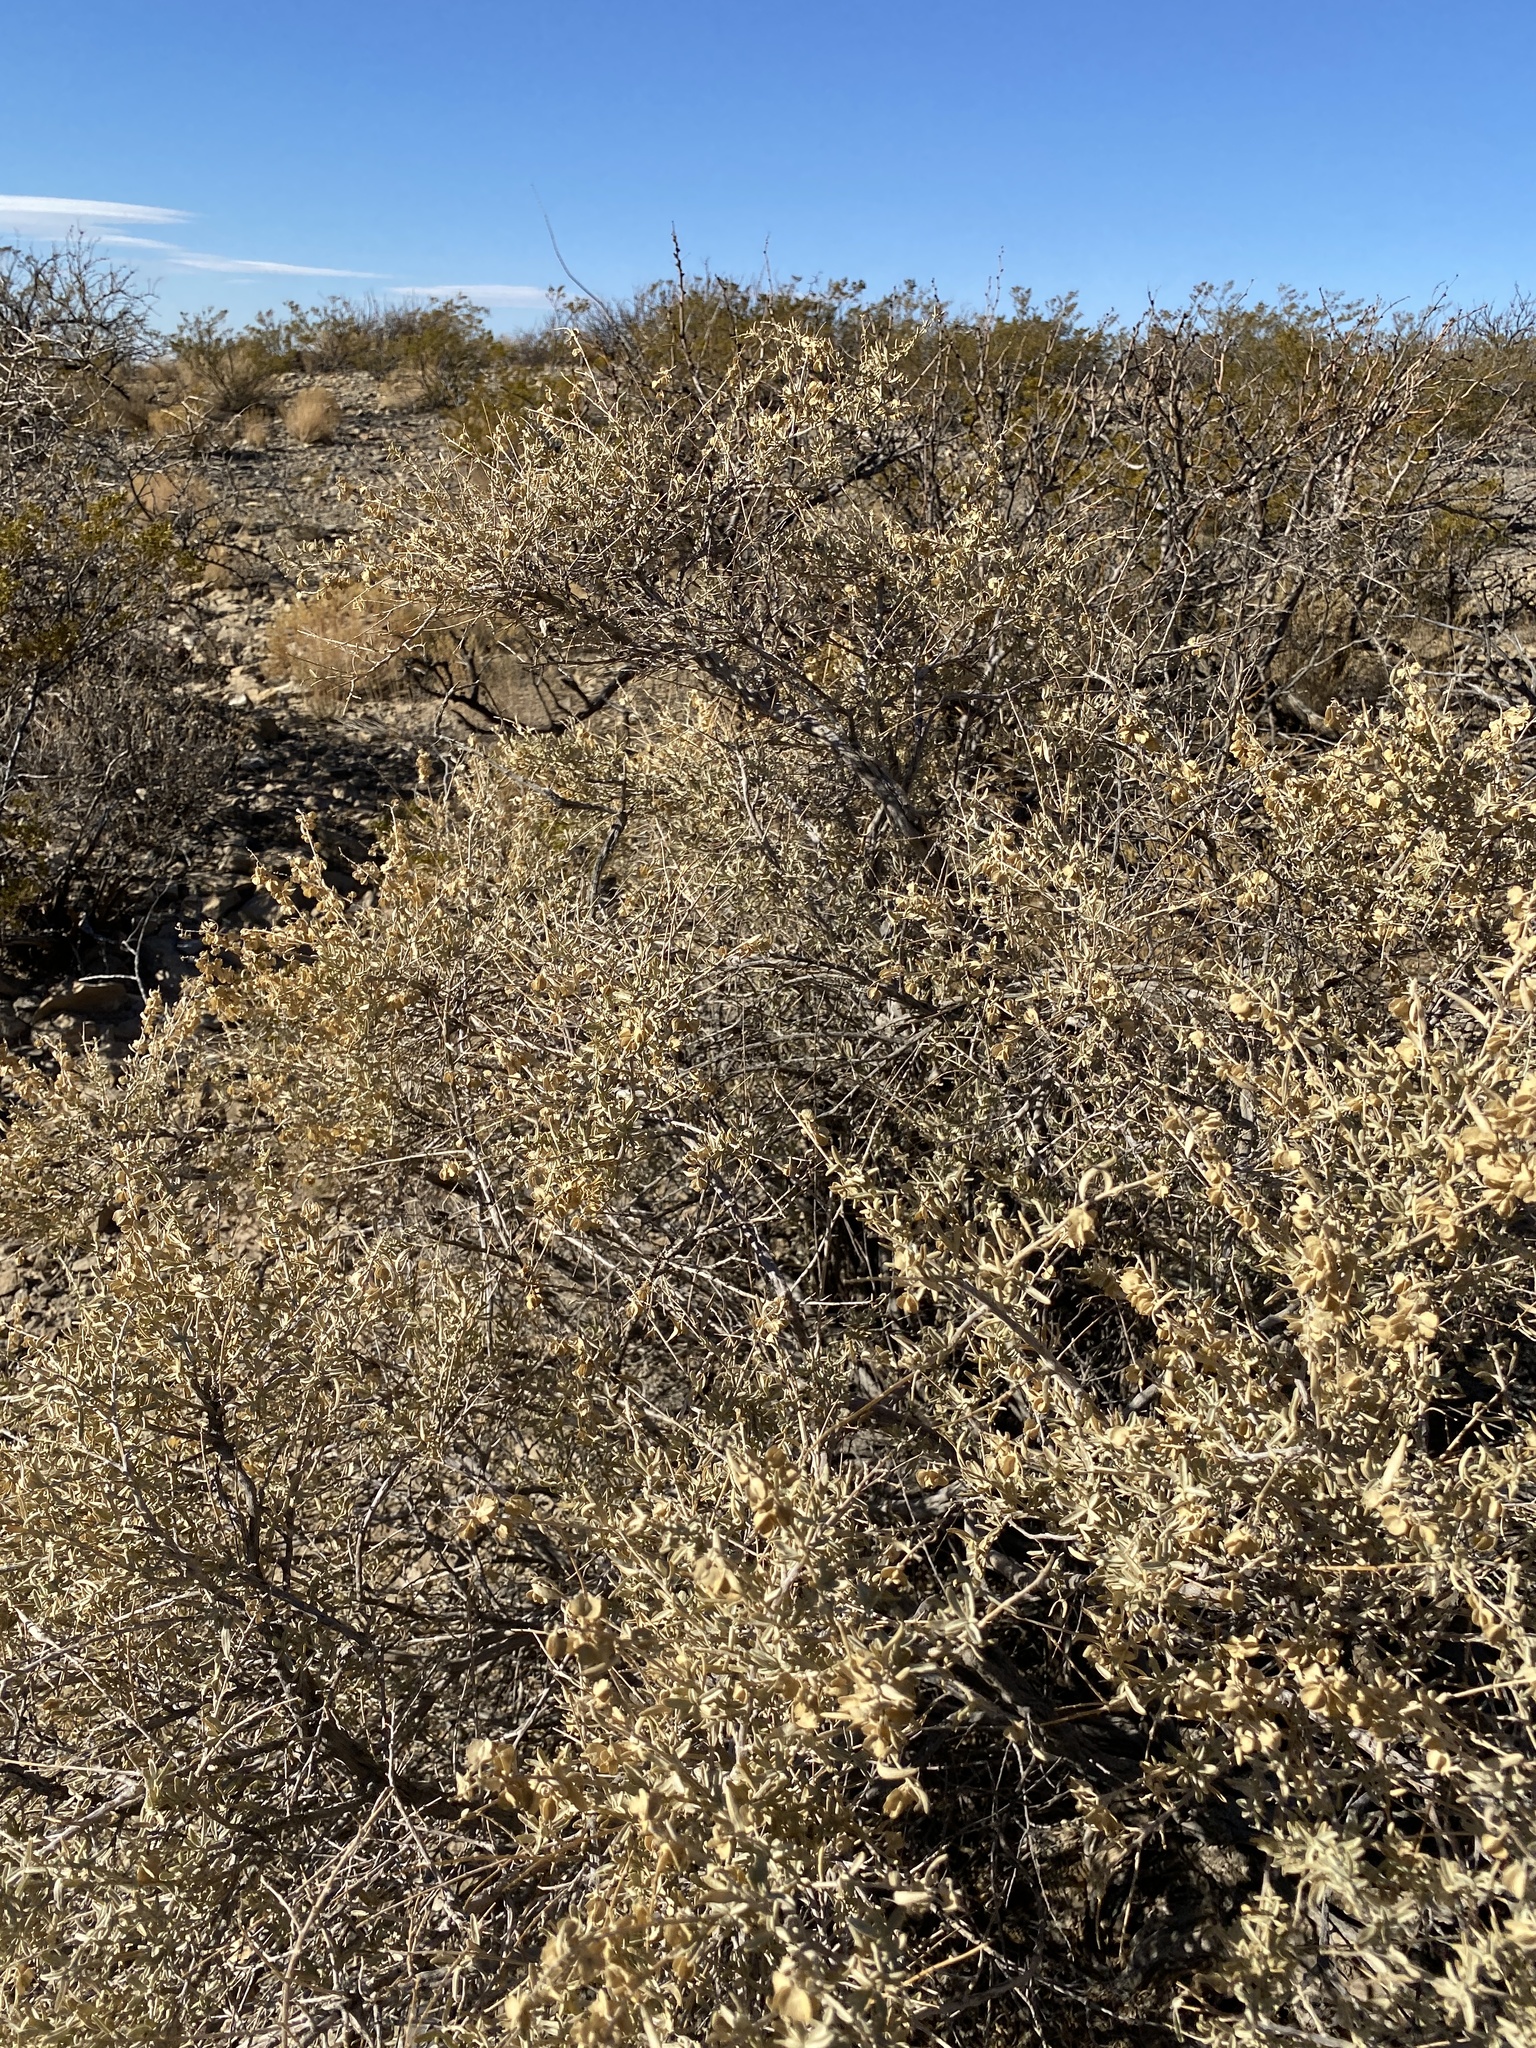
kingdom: Plantae
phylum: Tracheophyta
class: Magnoliopsida
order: Caryophyllales
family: Amaranthaceae
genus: Atriplex
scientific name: Atriplex canescens
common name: Four-wing saltbush
